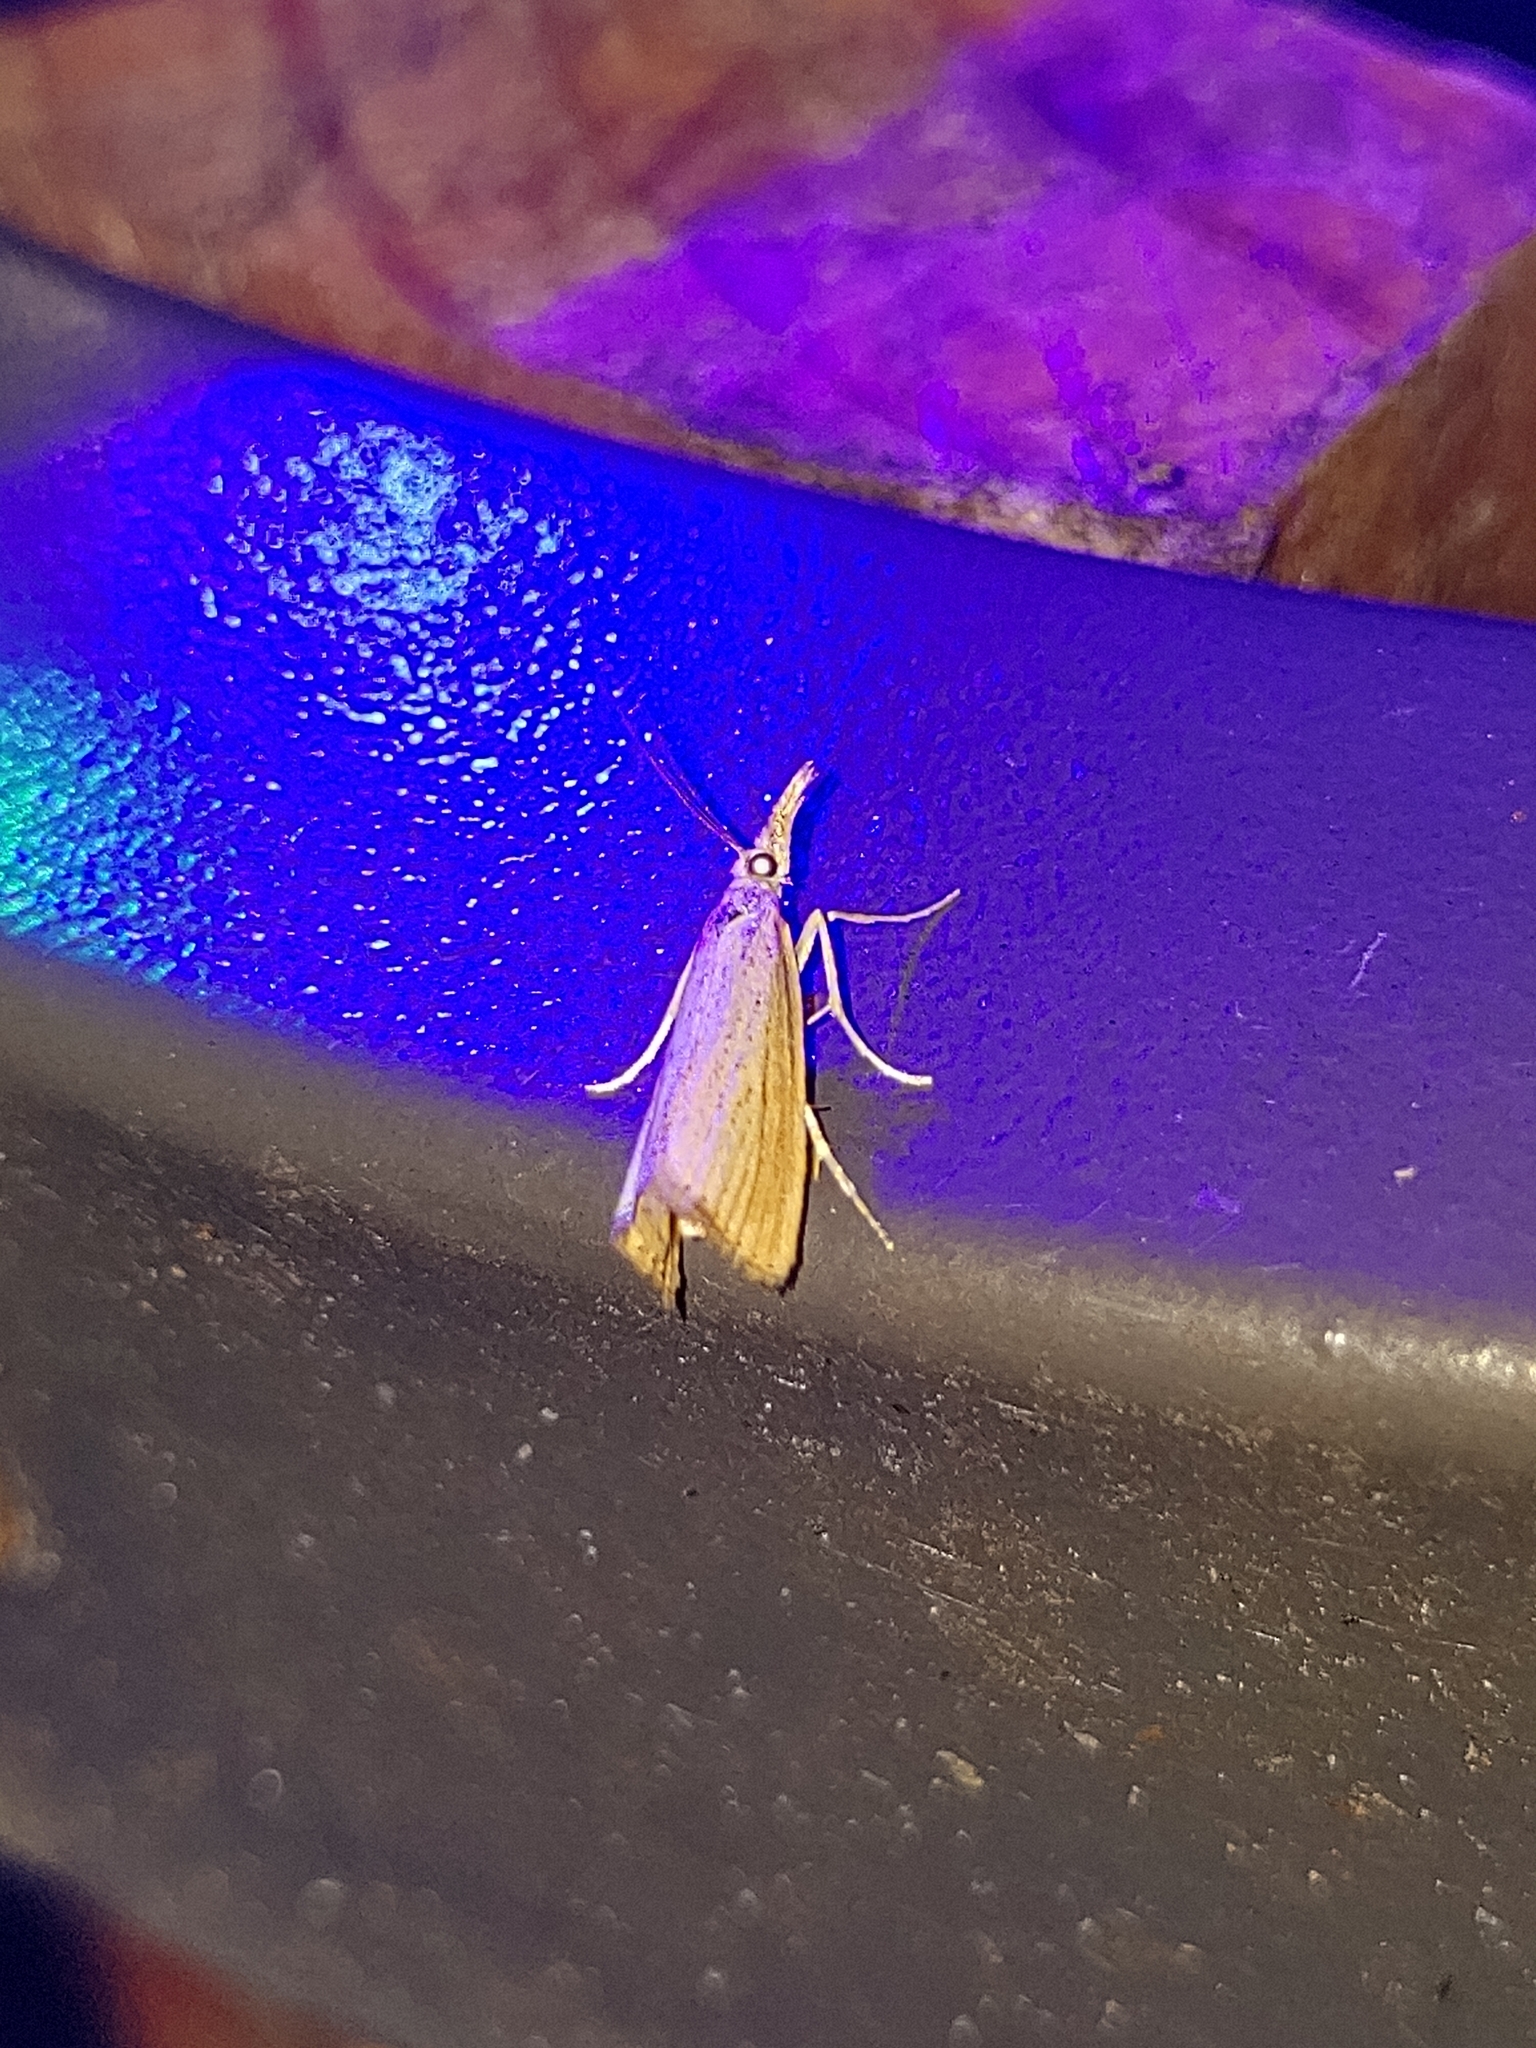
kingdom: Animalia
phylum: Arthropoda
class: Insecta
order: Lepidoptera
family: Crambidae
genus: Agriphila
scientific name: Agriphila straminella
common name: Straw grass-veneer
